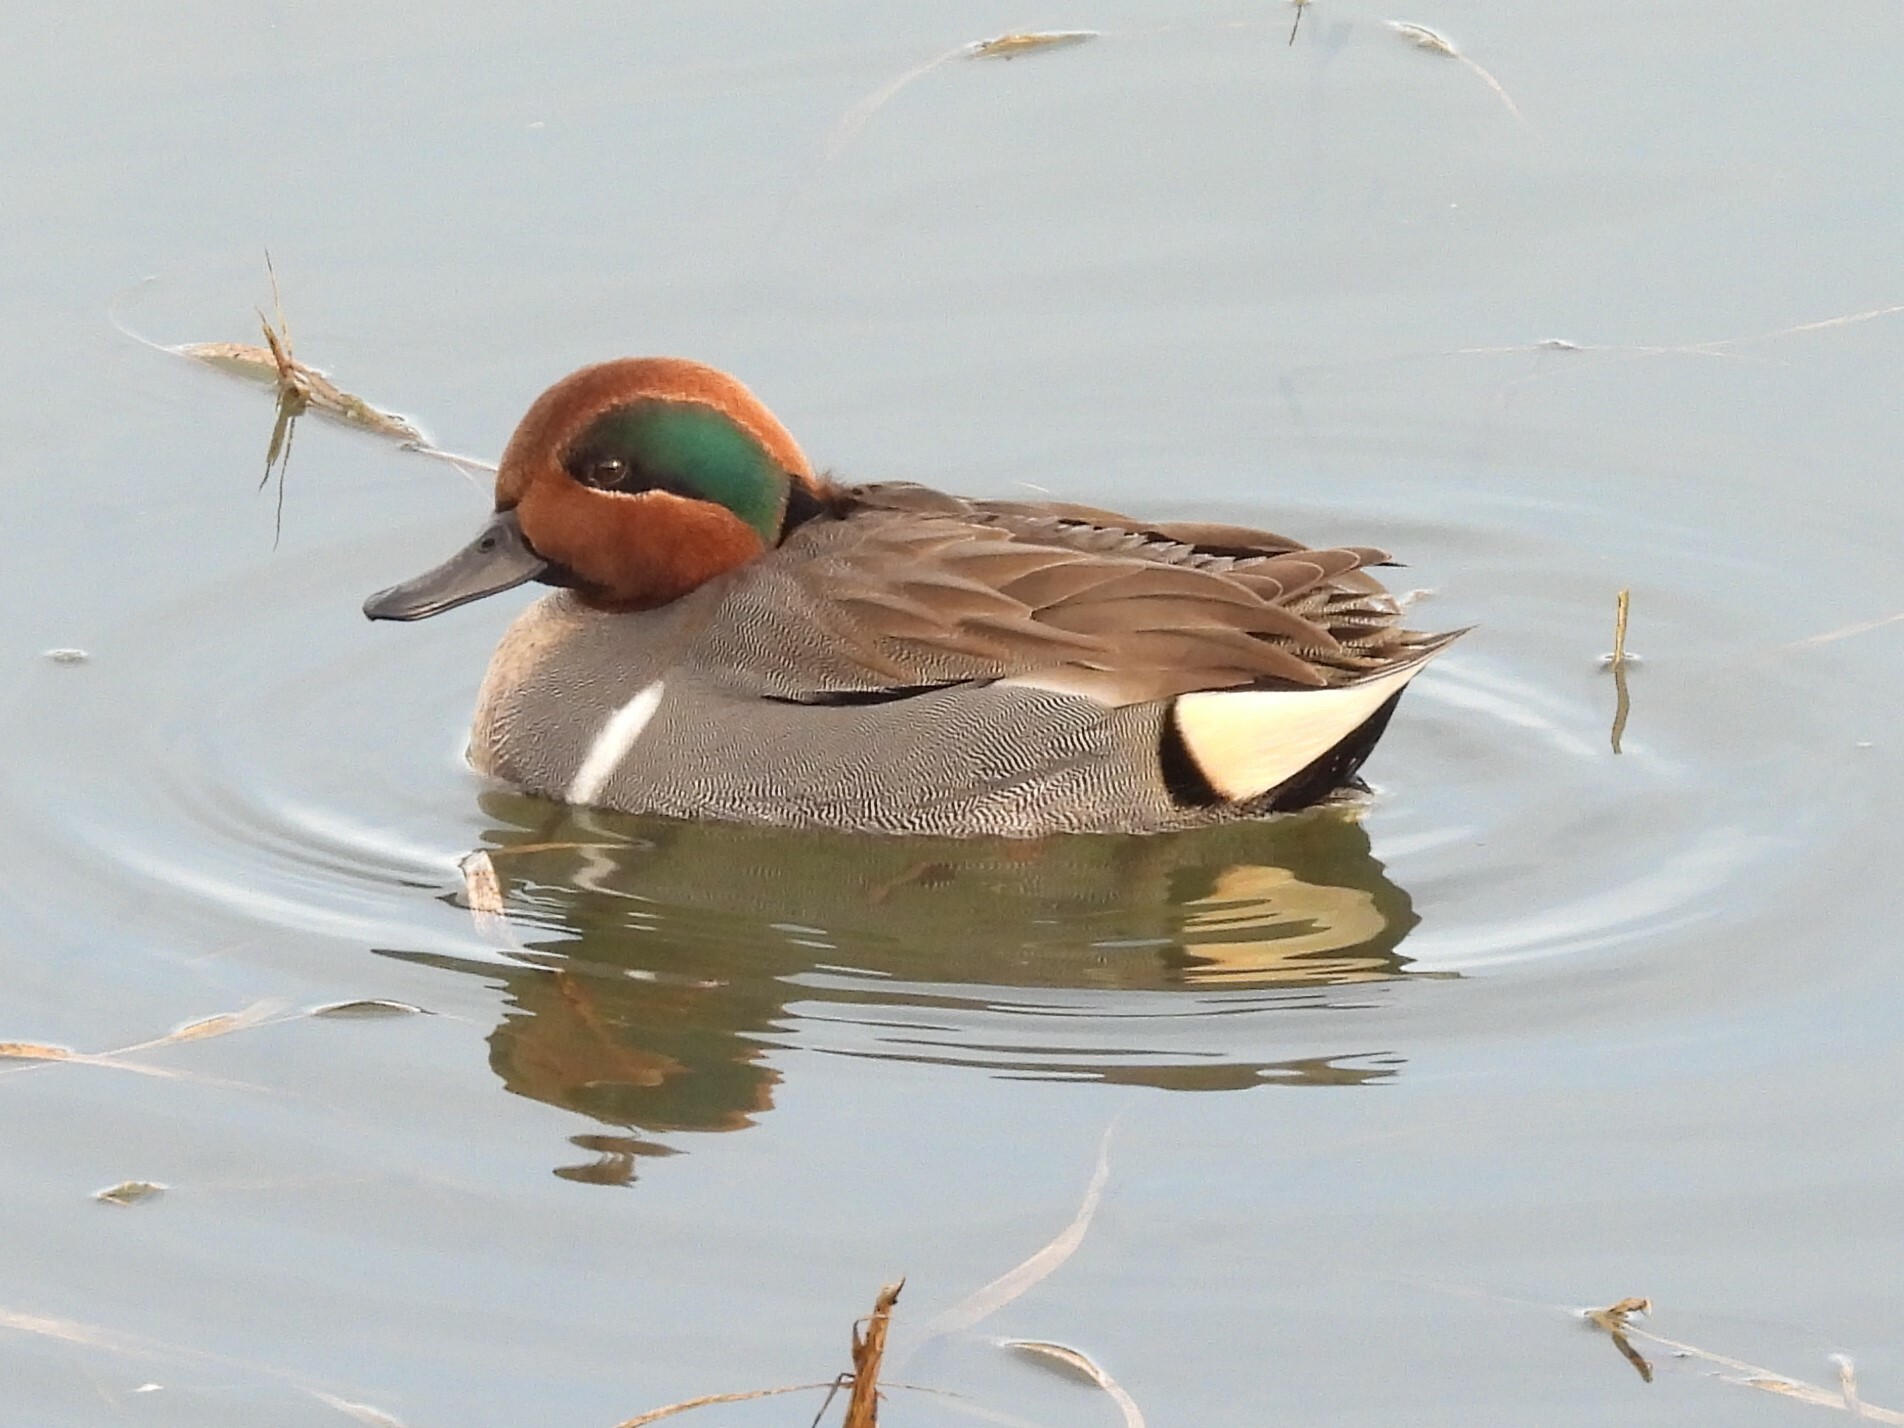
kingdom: Animalia
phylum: Chordata
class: Aves
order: Anseriformes
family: Anatidae
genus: Anas
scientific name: Anas crecca
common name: Eurasian teal
